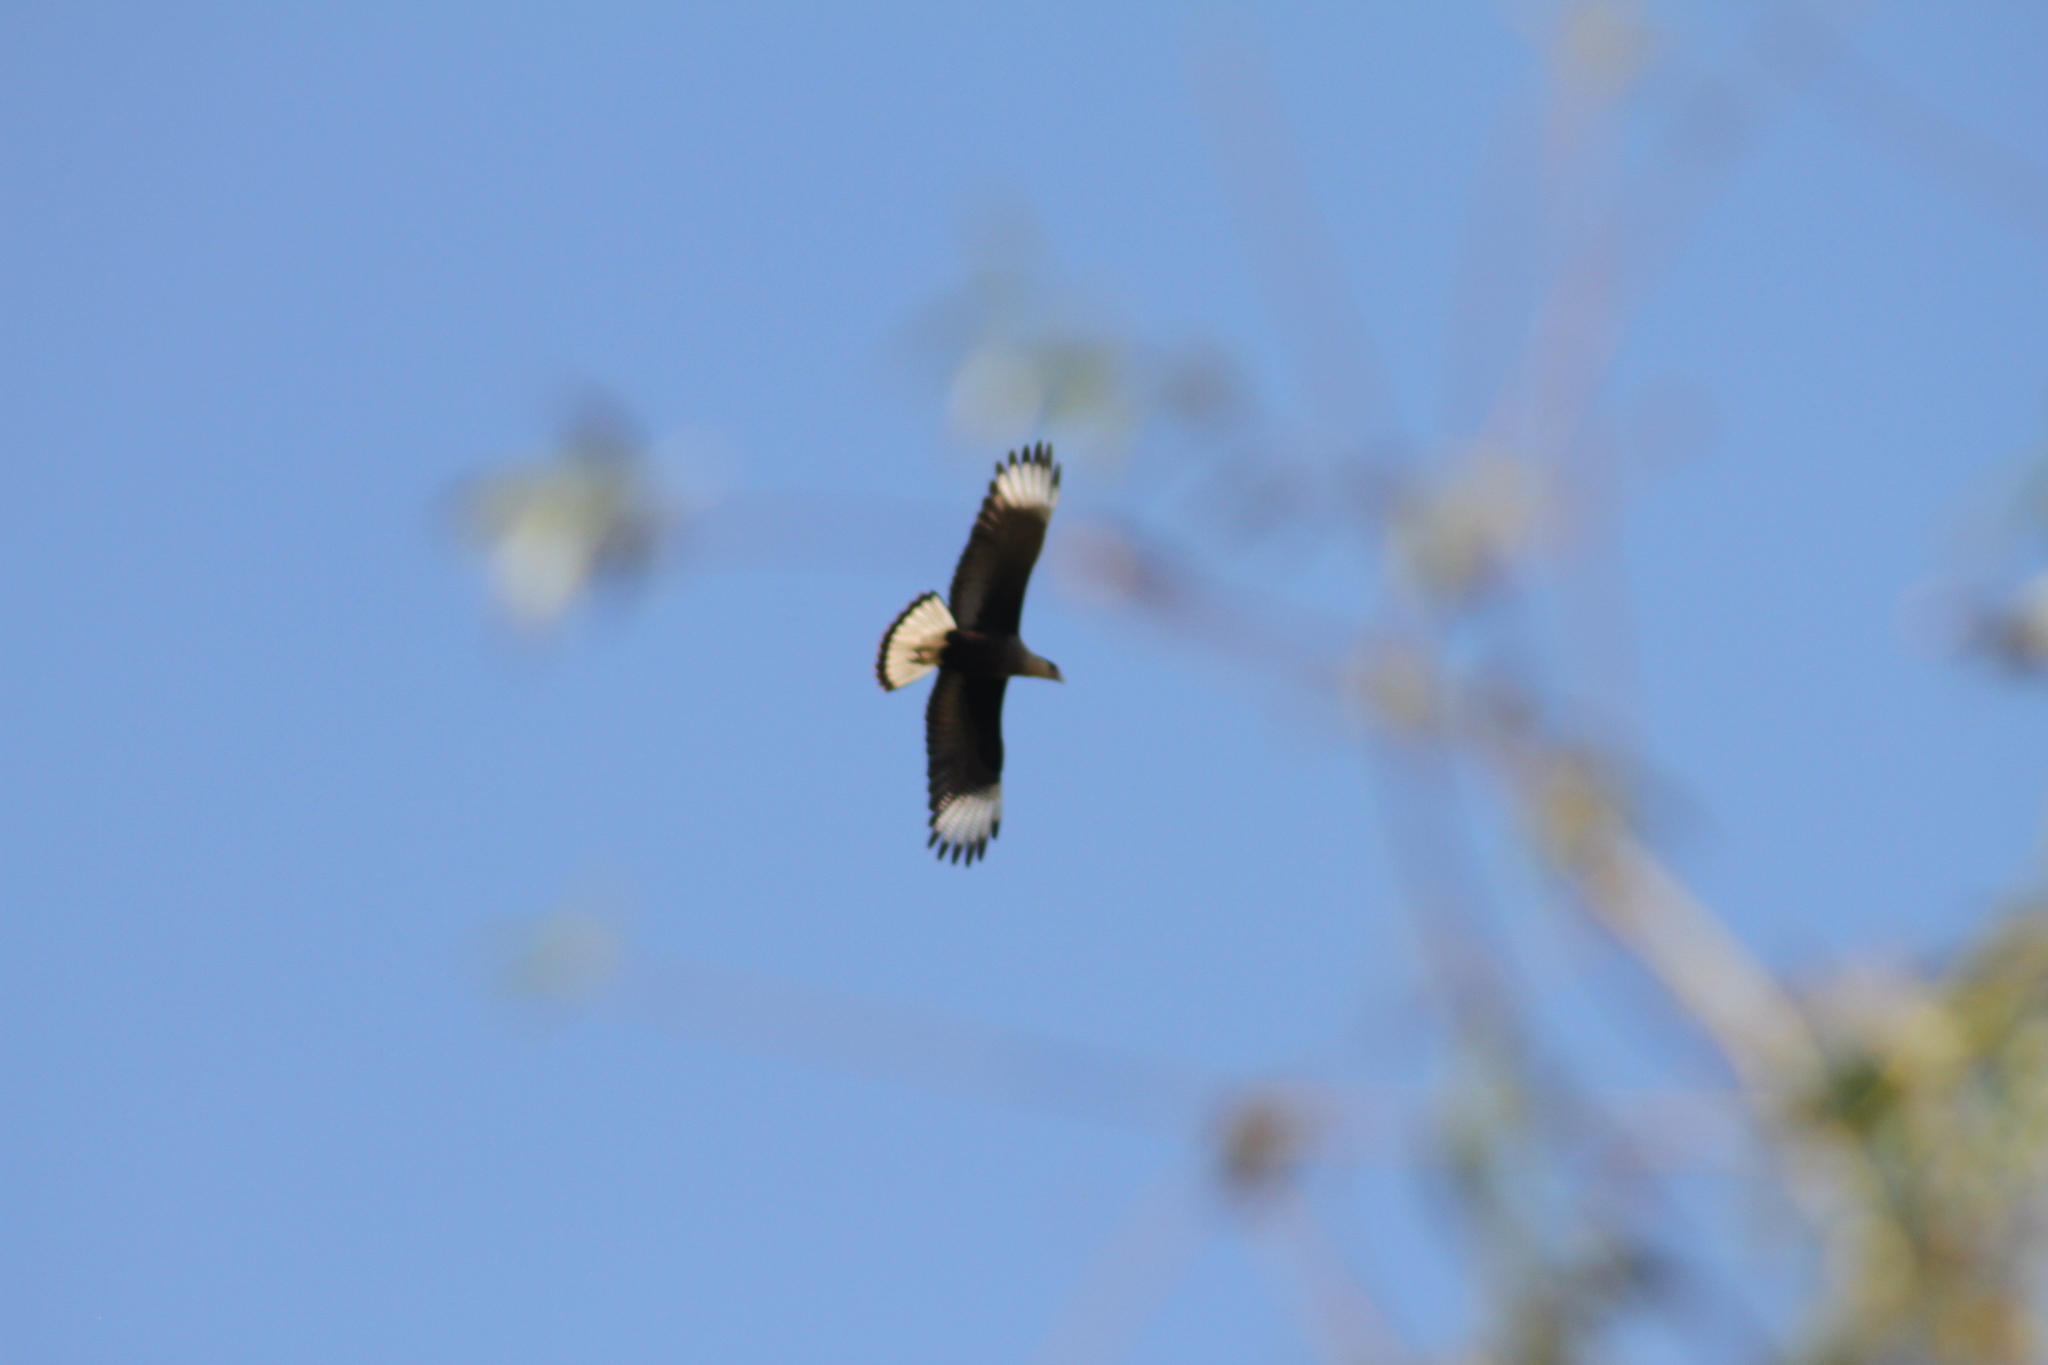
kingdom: Animalia
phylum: Chordata
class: Aves
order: Falconiformes
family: Falconidae
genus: Caracara
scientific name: Caracara plancus
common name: Southern caracara
